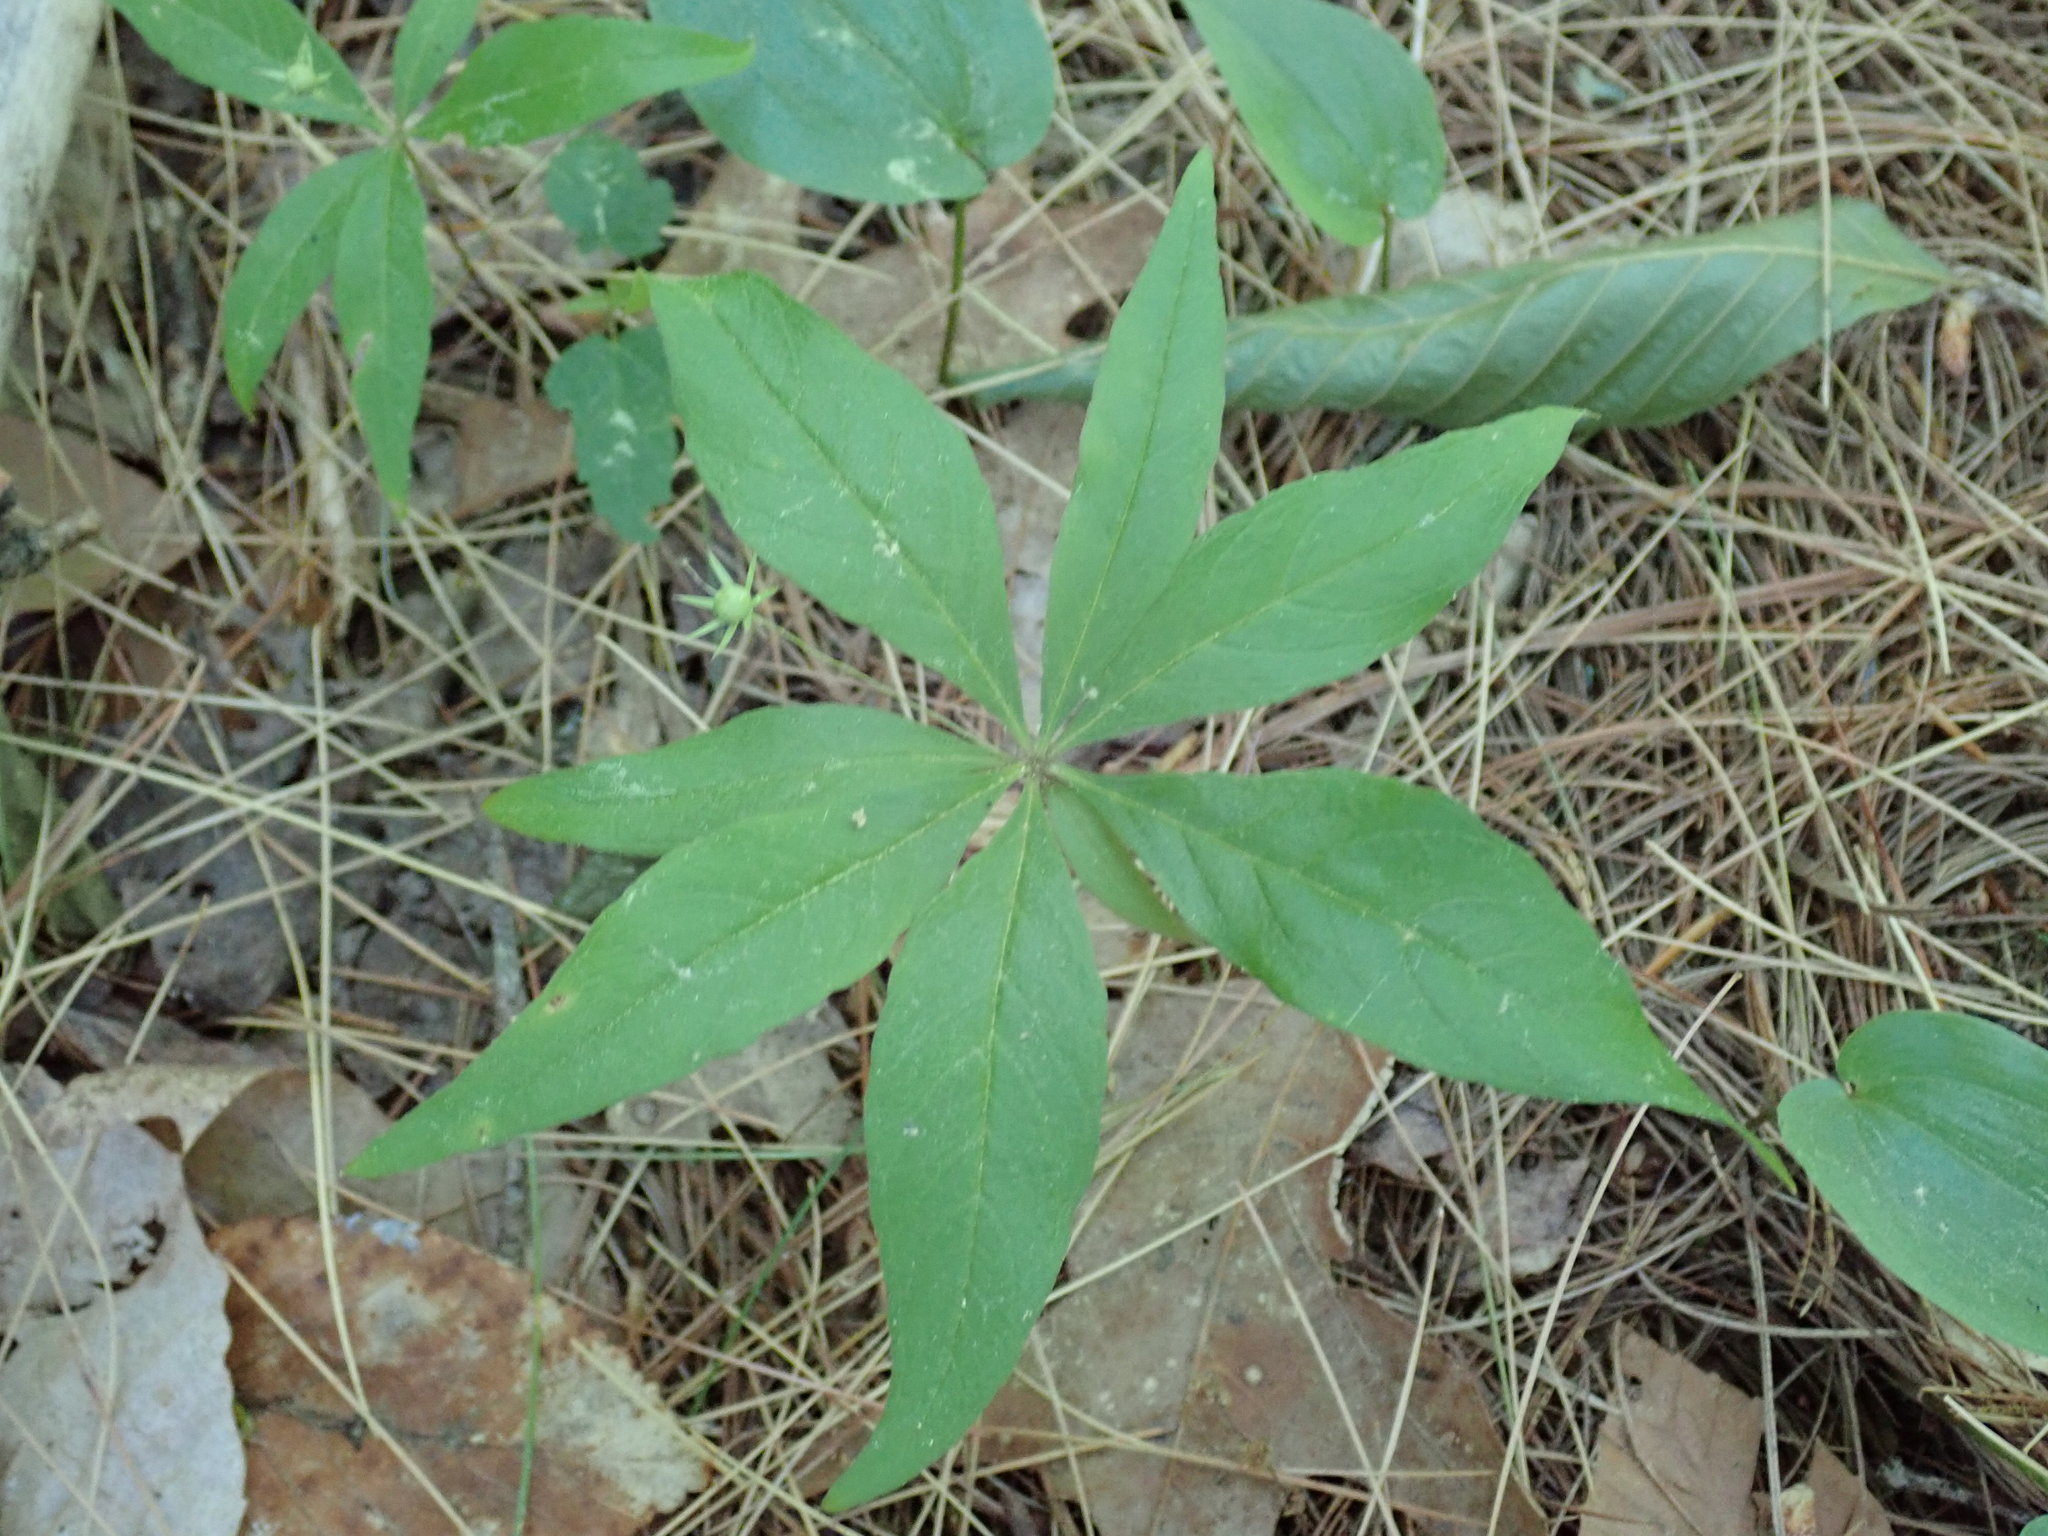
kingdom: Plantae
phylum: Tracheophyta
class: Magnoliopsida
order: Ericales
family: Primulaceae
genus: Lysimachia
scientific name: Lysimachia borealis
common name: American starflower
